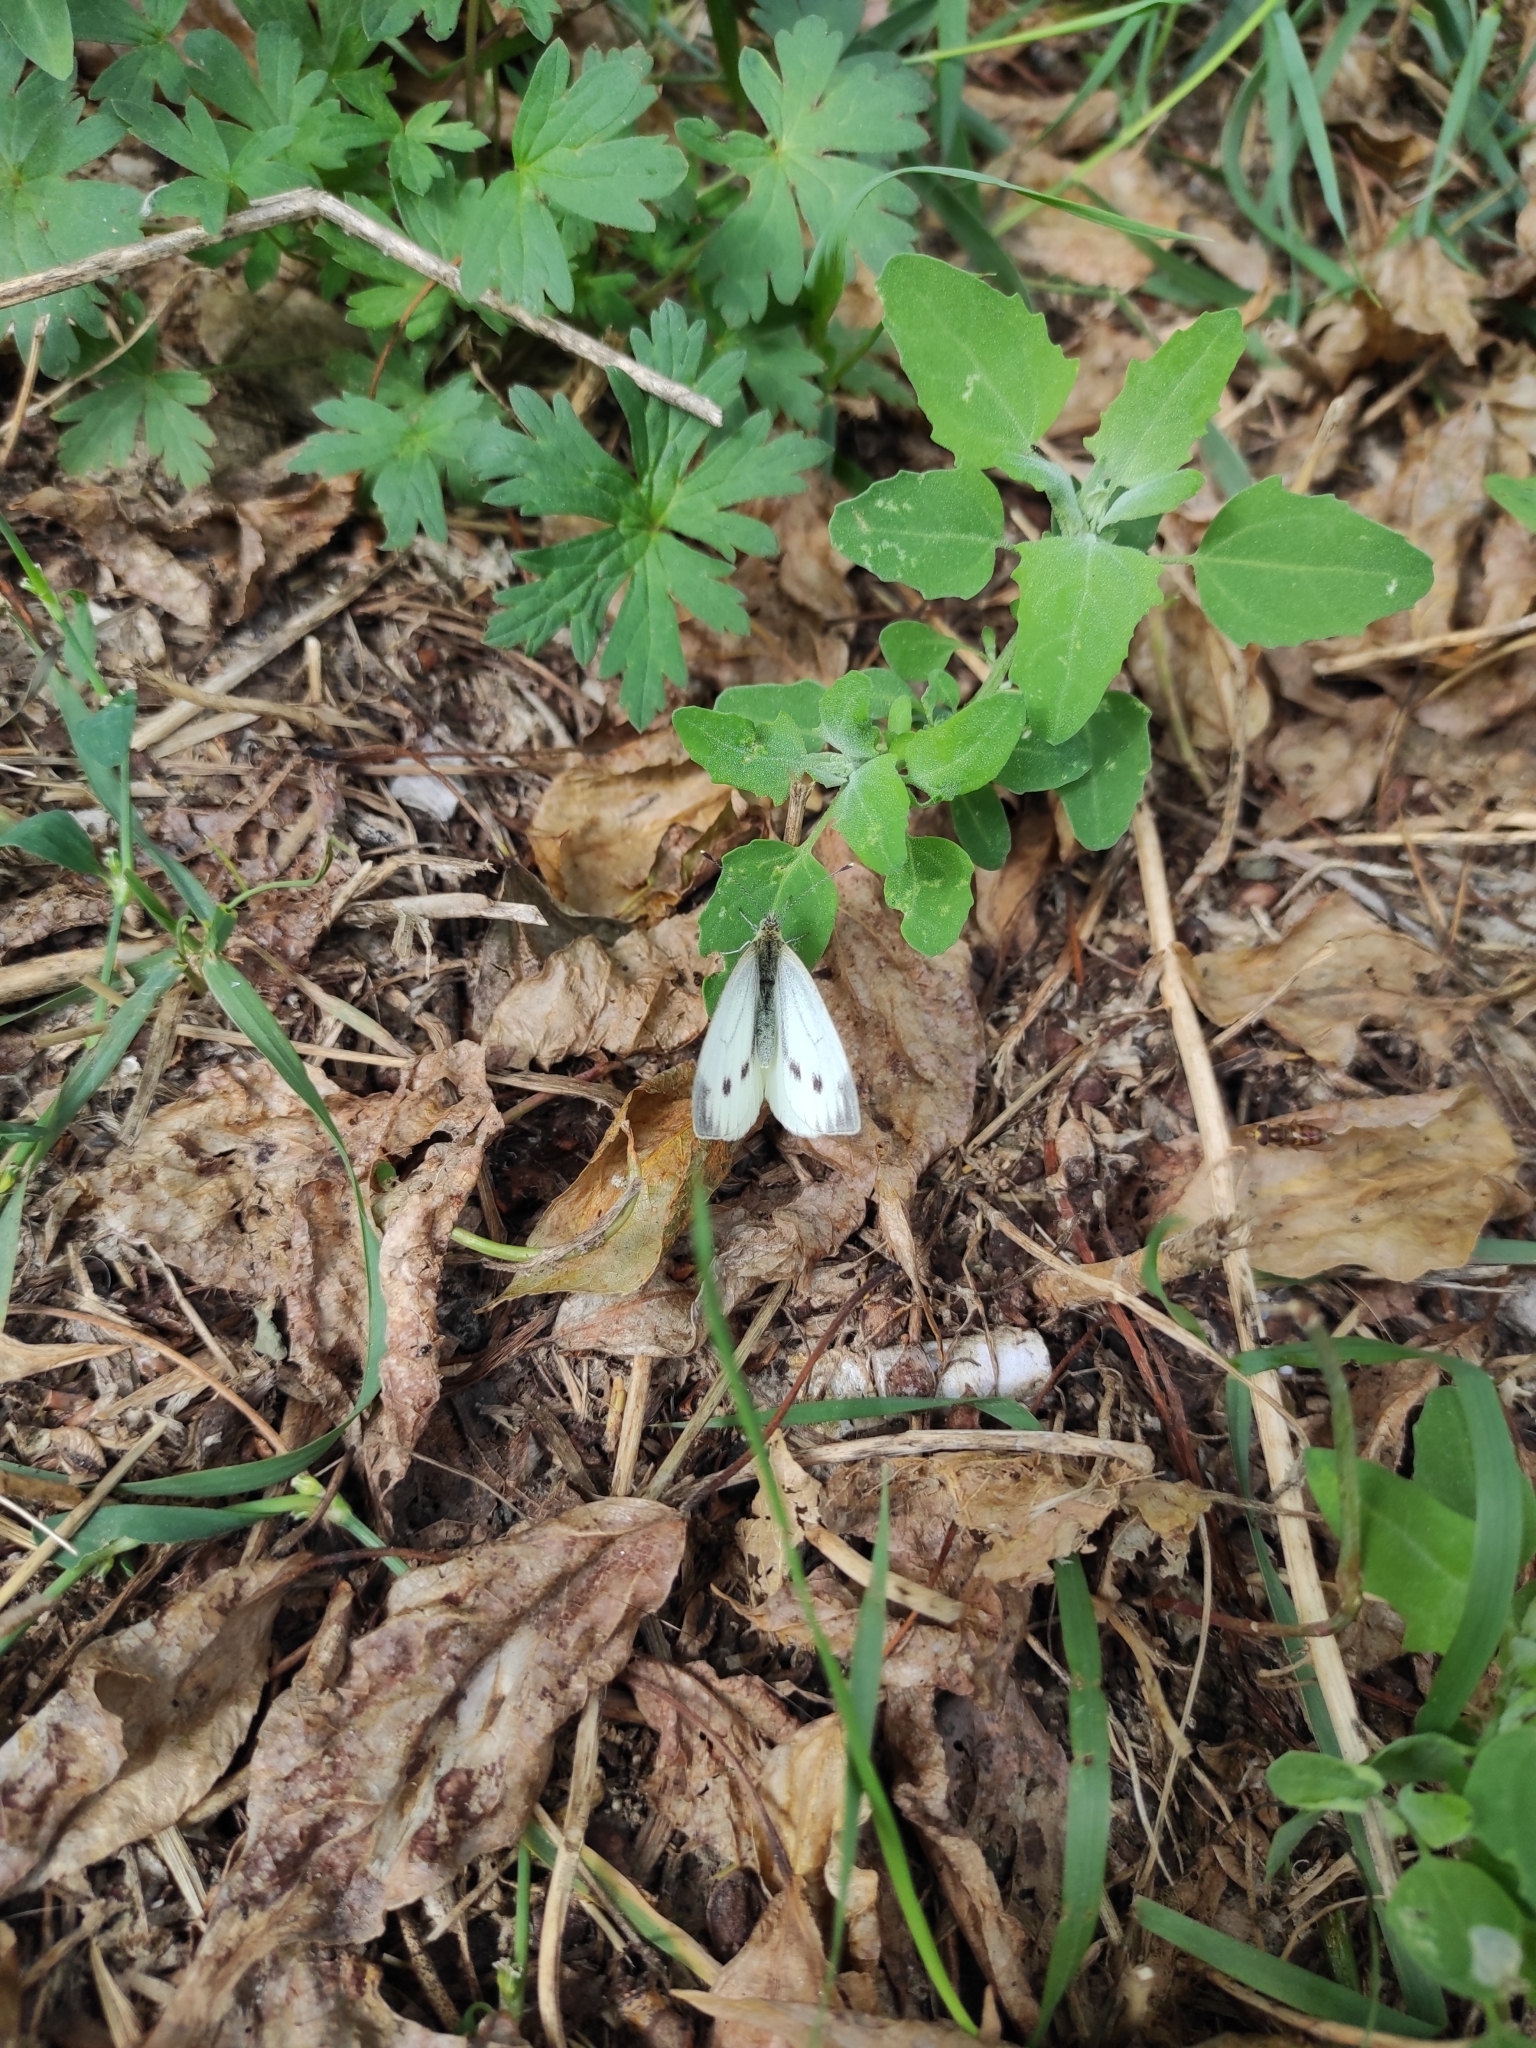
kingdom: Animalia
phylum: Arthropoda
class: Insecta
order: Lepidoptera
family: Pieridae
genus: Pieris
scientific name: Pieris napi
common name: Green-veined white
